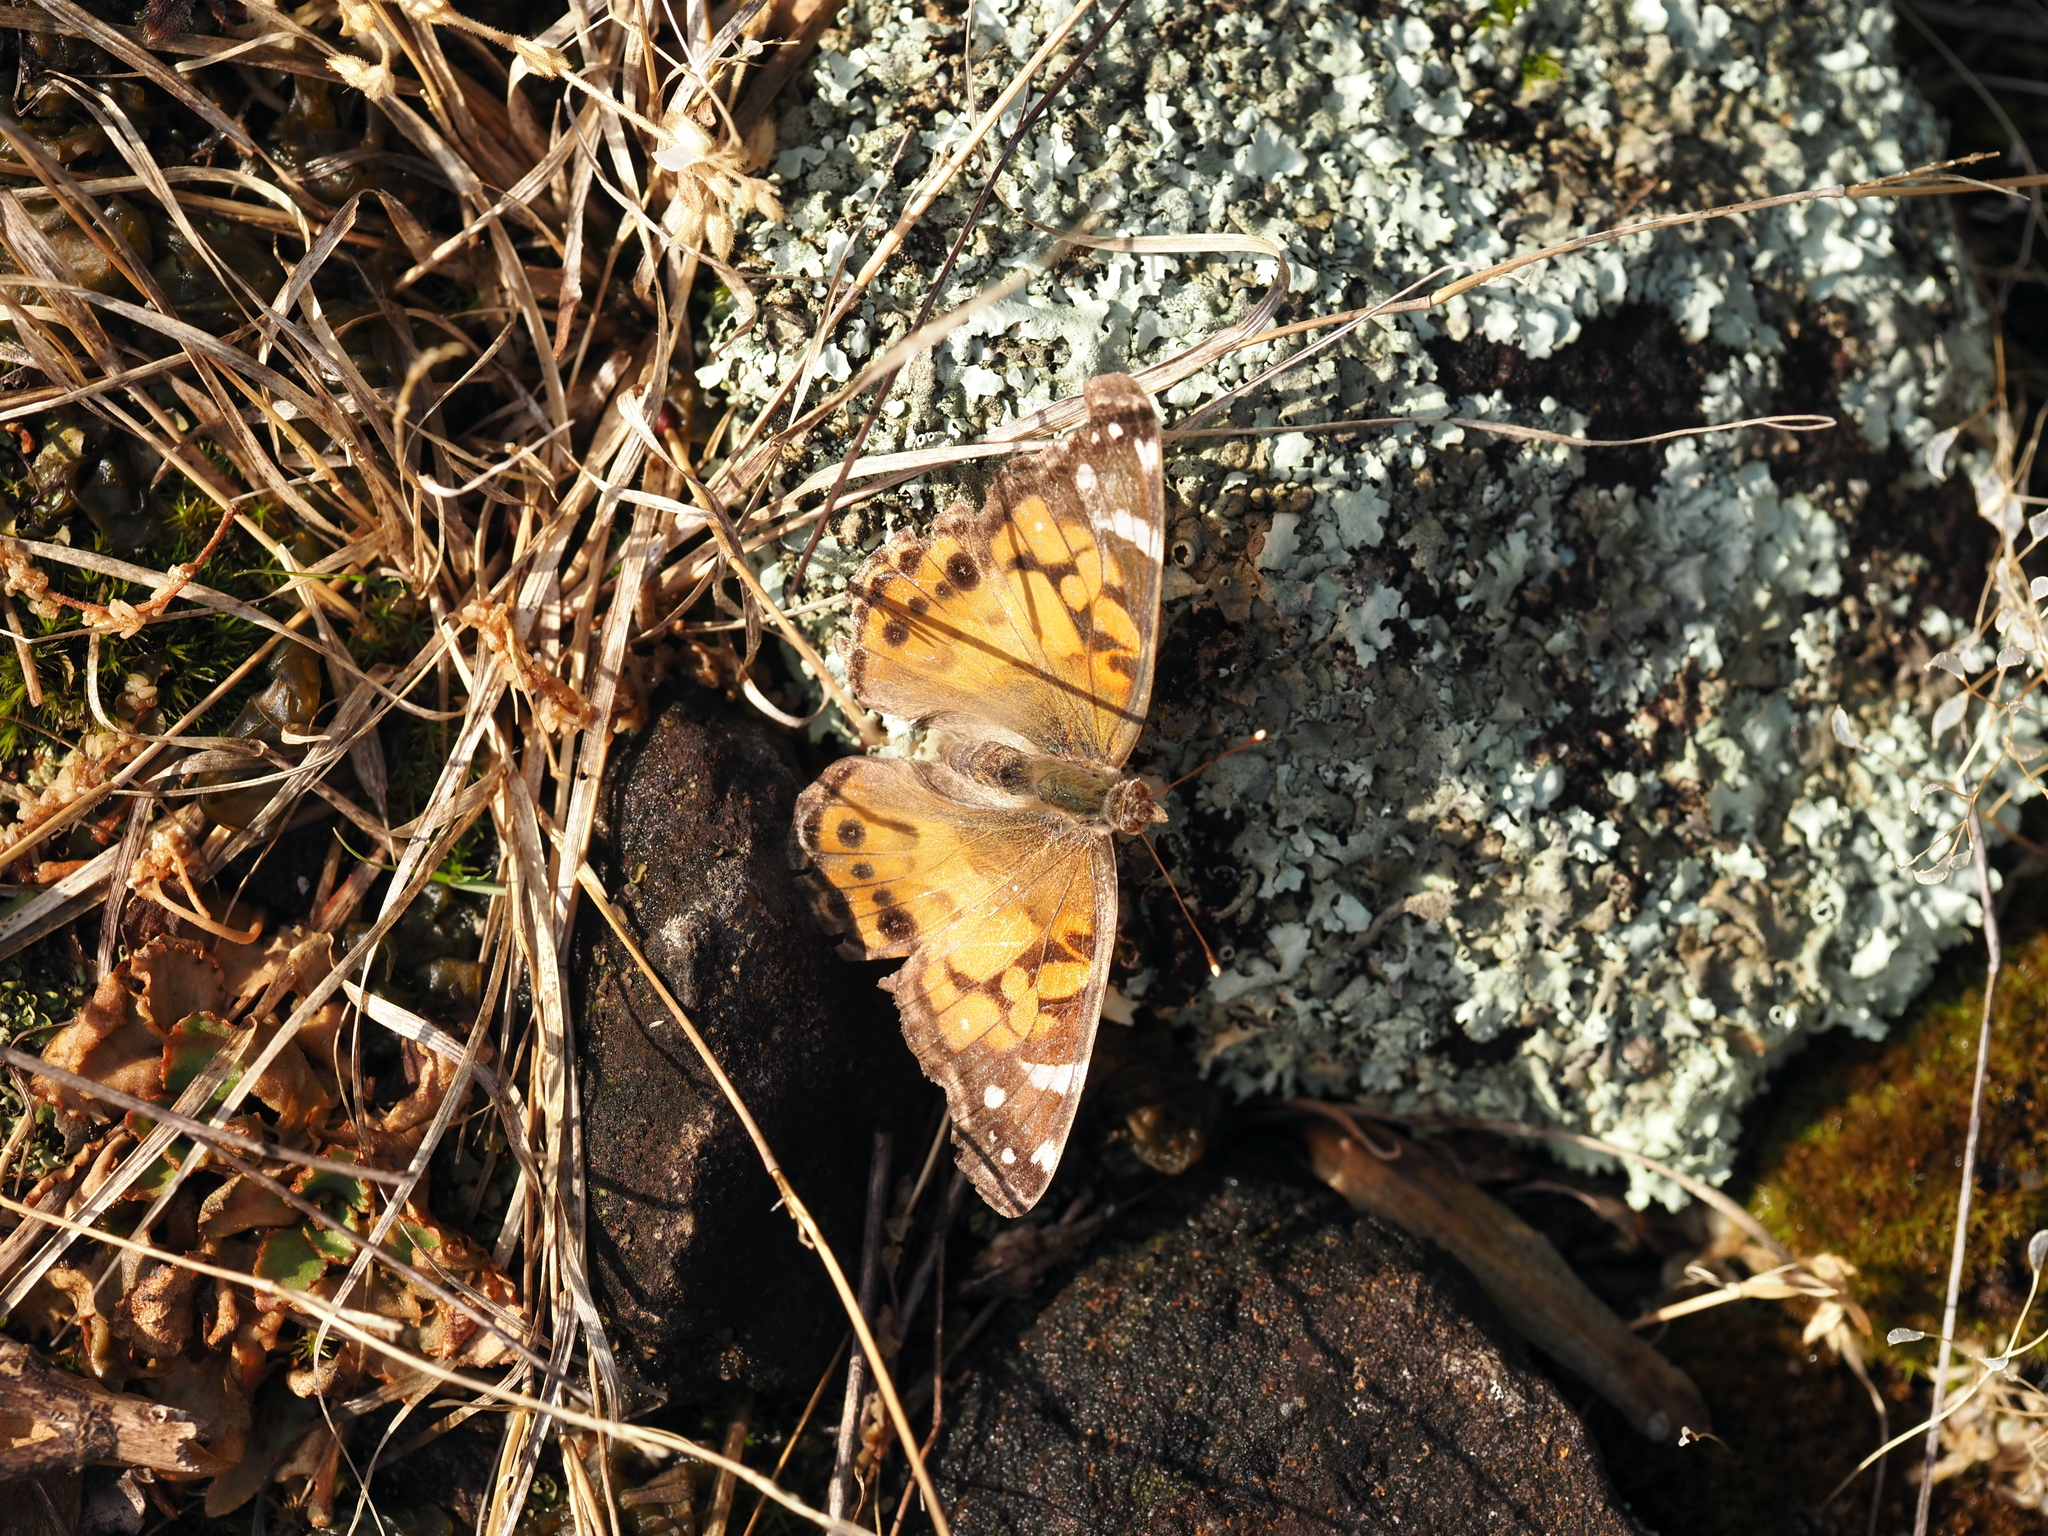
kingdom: Animalia
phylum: Arthropoda
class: Insecta
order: Lepidoptera
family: Nymphalidae
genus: Vanessa
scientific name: Vanessa virginiensis
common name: American lady
